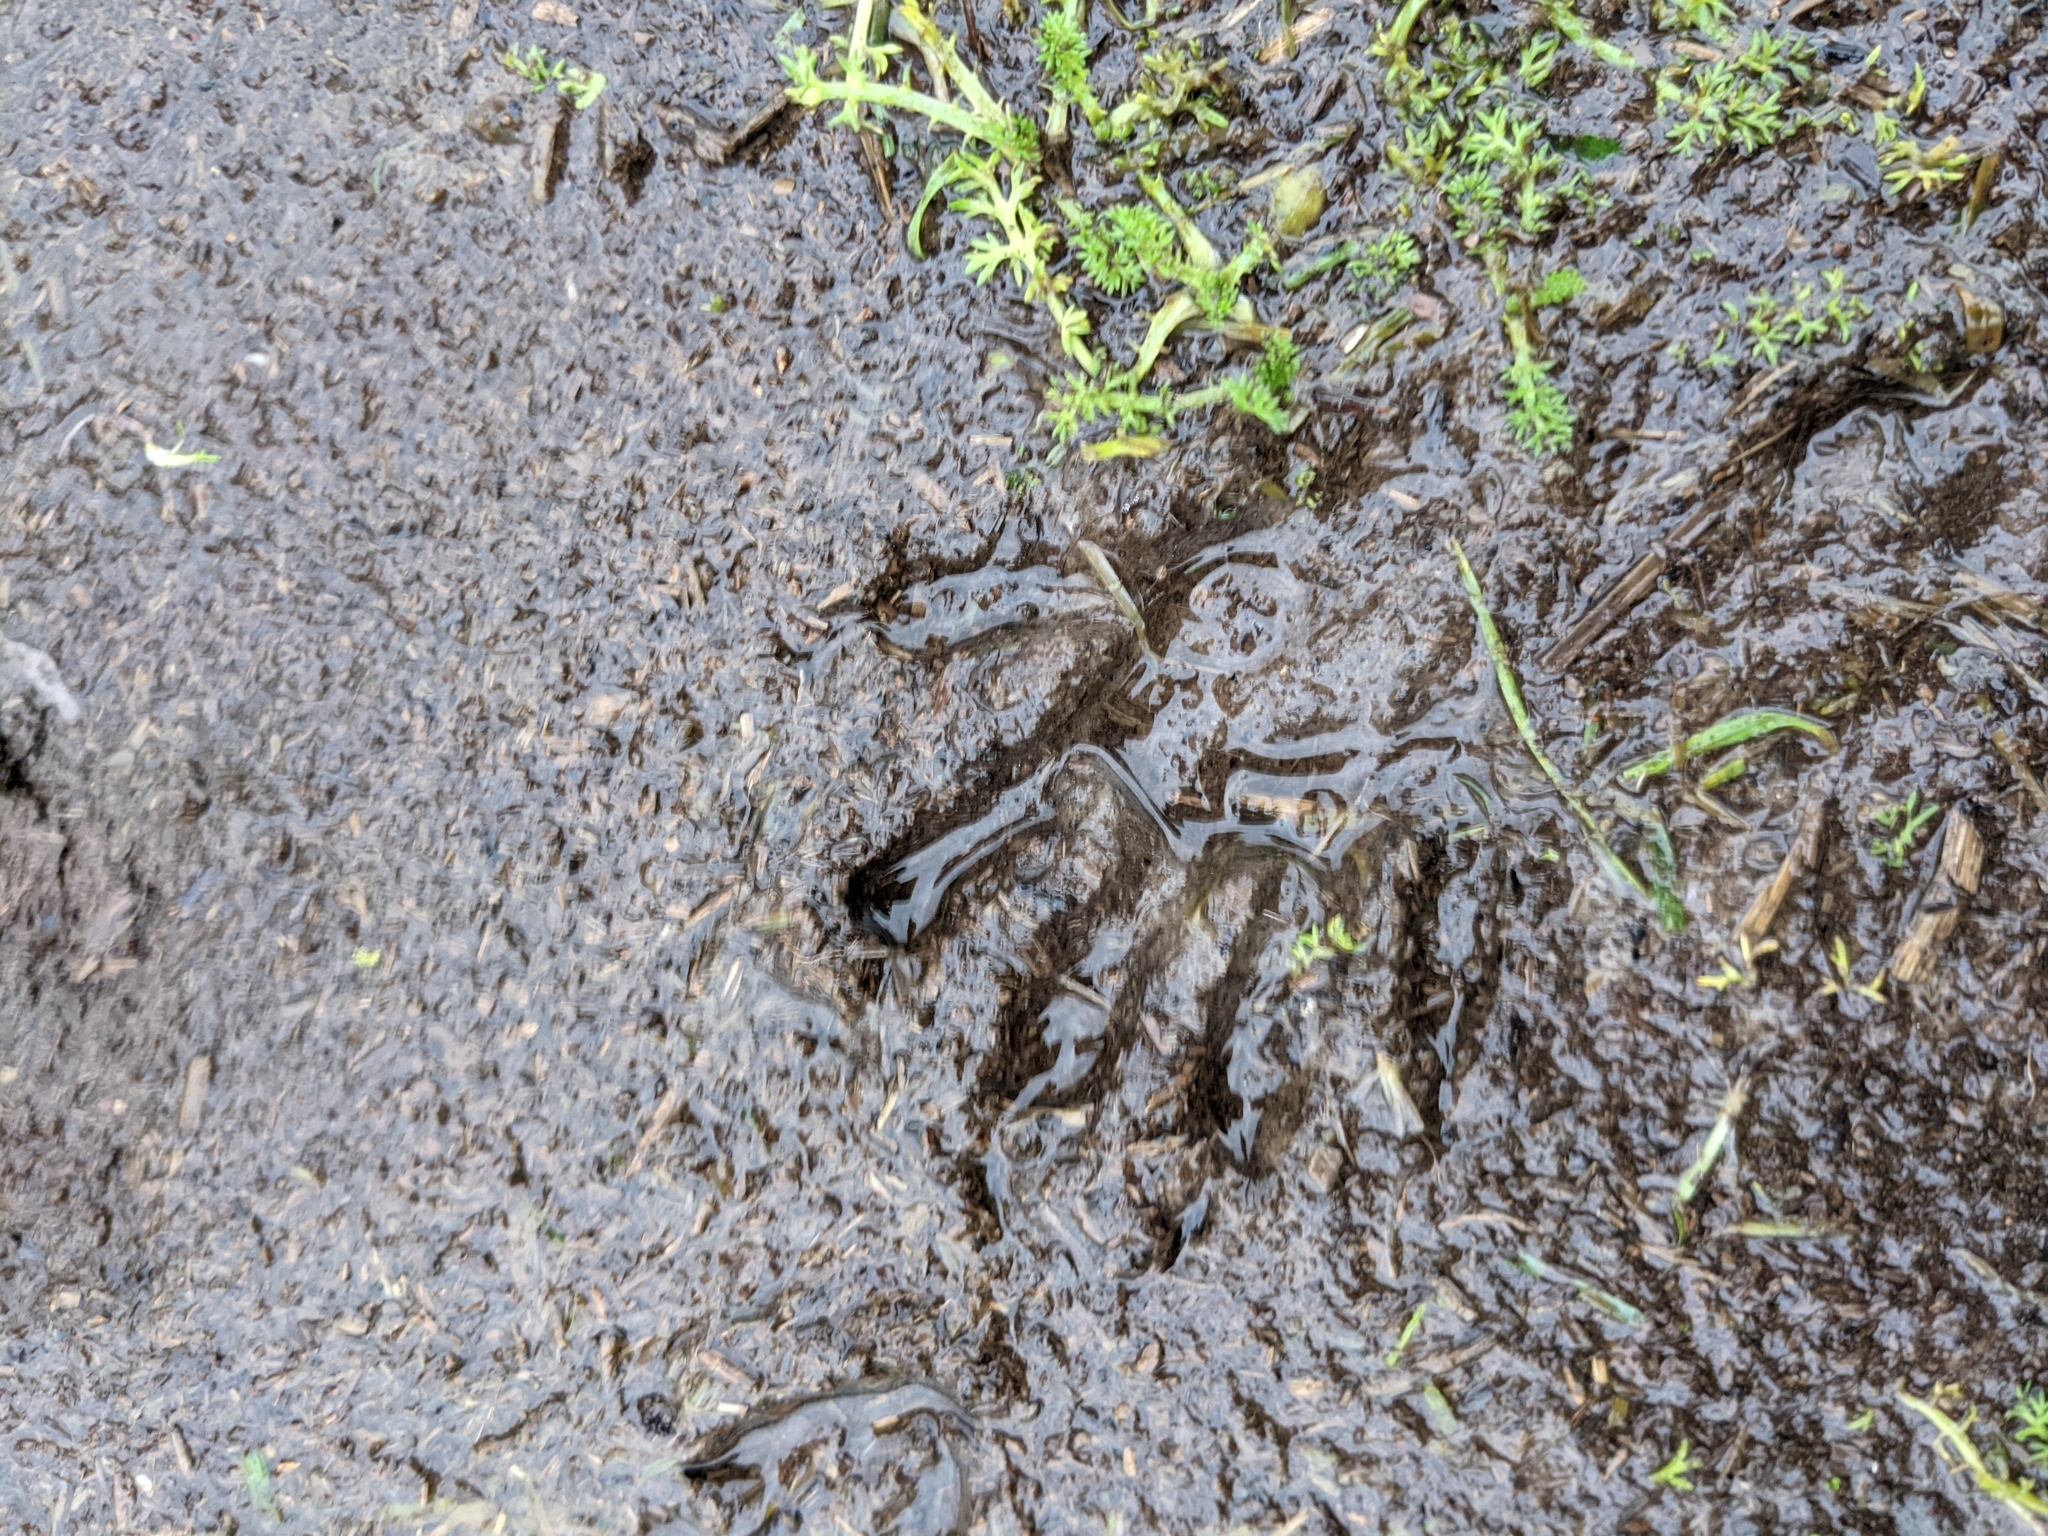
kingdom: Animalia
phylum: Chordata
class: Mammalia
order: Carnivora
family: Procyonidae
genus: Procyon
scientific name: Procyon lotor
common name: Raccoon
